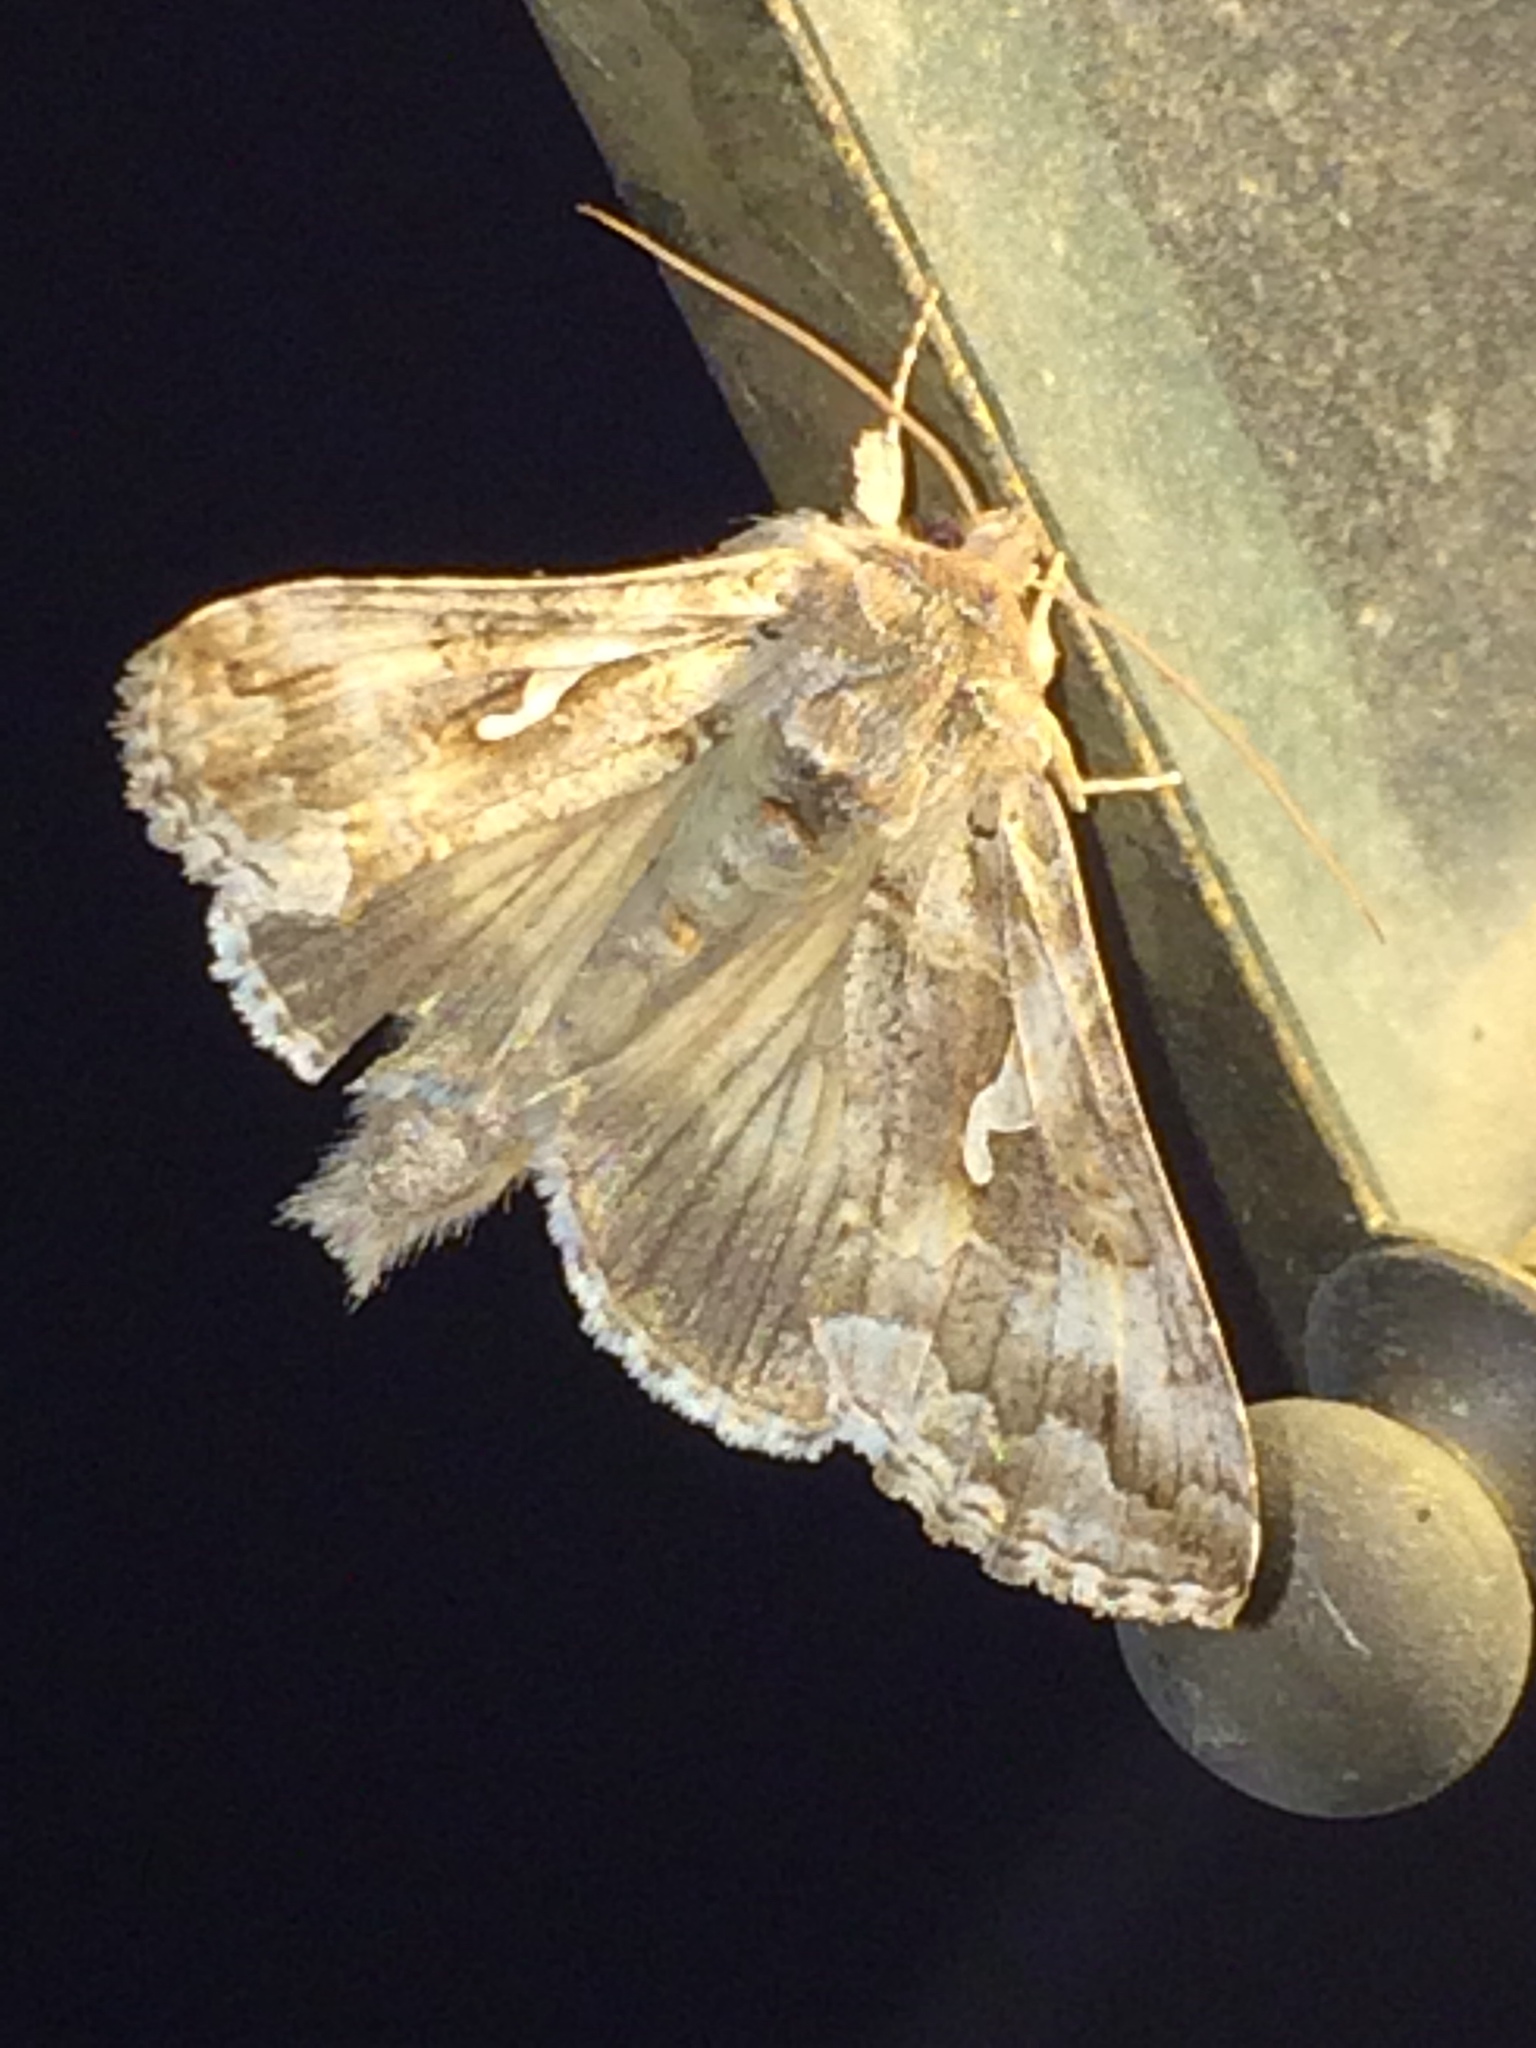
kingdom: Animalia
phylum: Arthropoda
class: Insecta
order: Lepidoptera
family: Noctuidae
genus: Autographa
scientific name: Autographa californica
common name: Alfalfa looper
